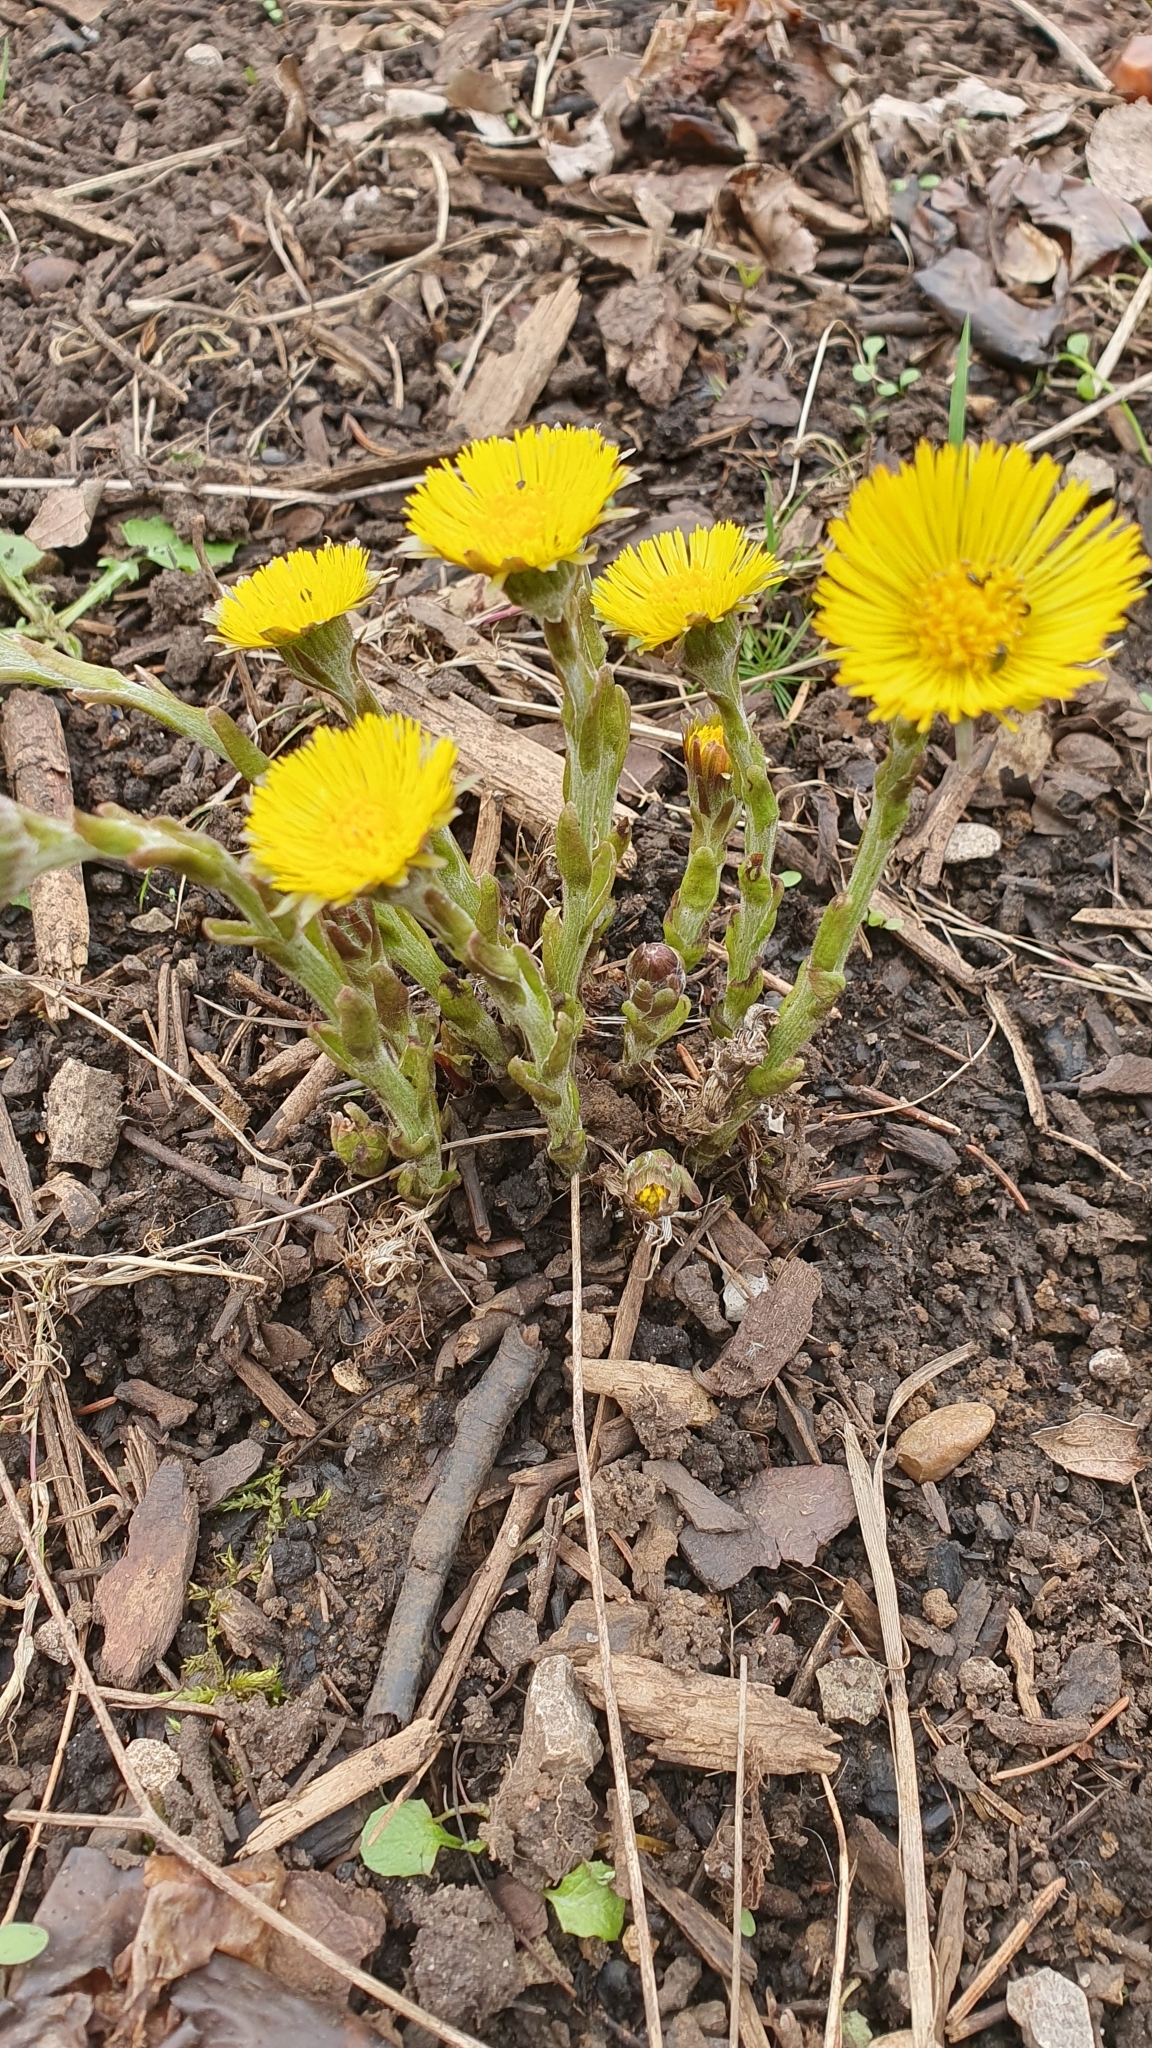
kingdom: Plantae
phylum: Tracheophyta
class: Magnoliopsida
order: Asterales
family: Asteraceae
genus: Tussilago
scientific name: Tussilago farfara
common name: Coltsfoot
